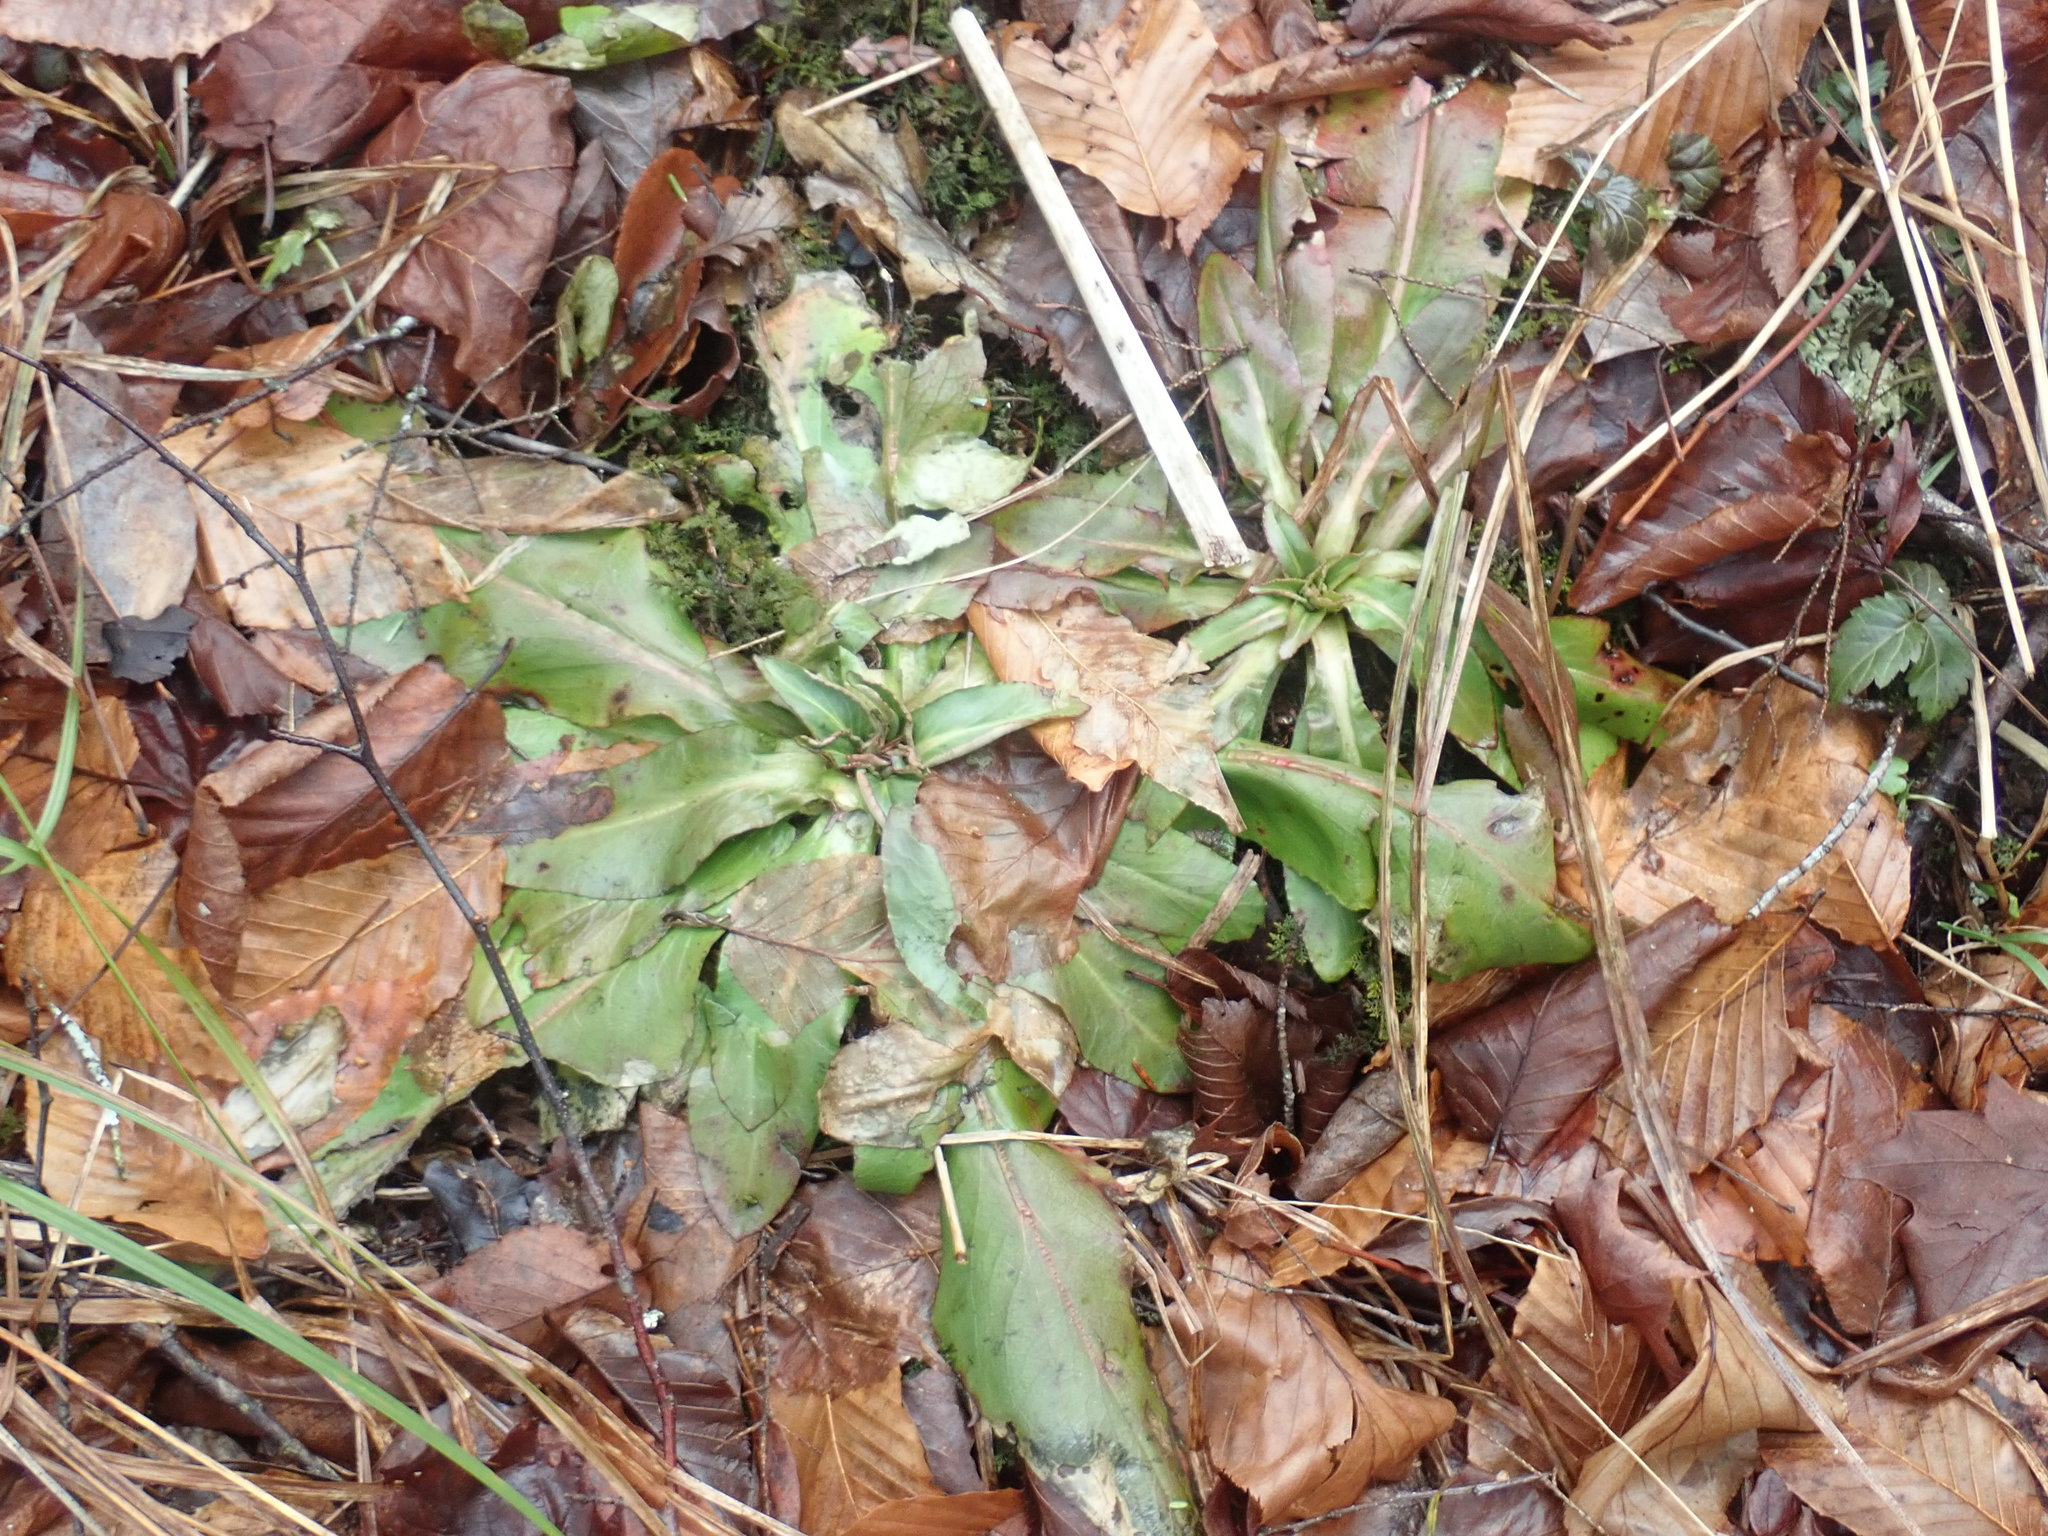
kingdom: Plantae
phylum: Tracheophyta
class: Magnoliopsida
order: Saxifragales
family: Saxifragaceae
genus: Micranthes
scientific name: Micranthes pensylvanica
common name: Marsh saxifrage
